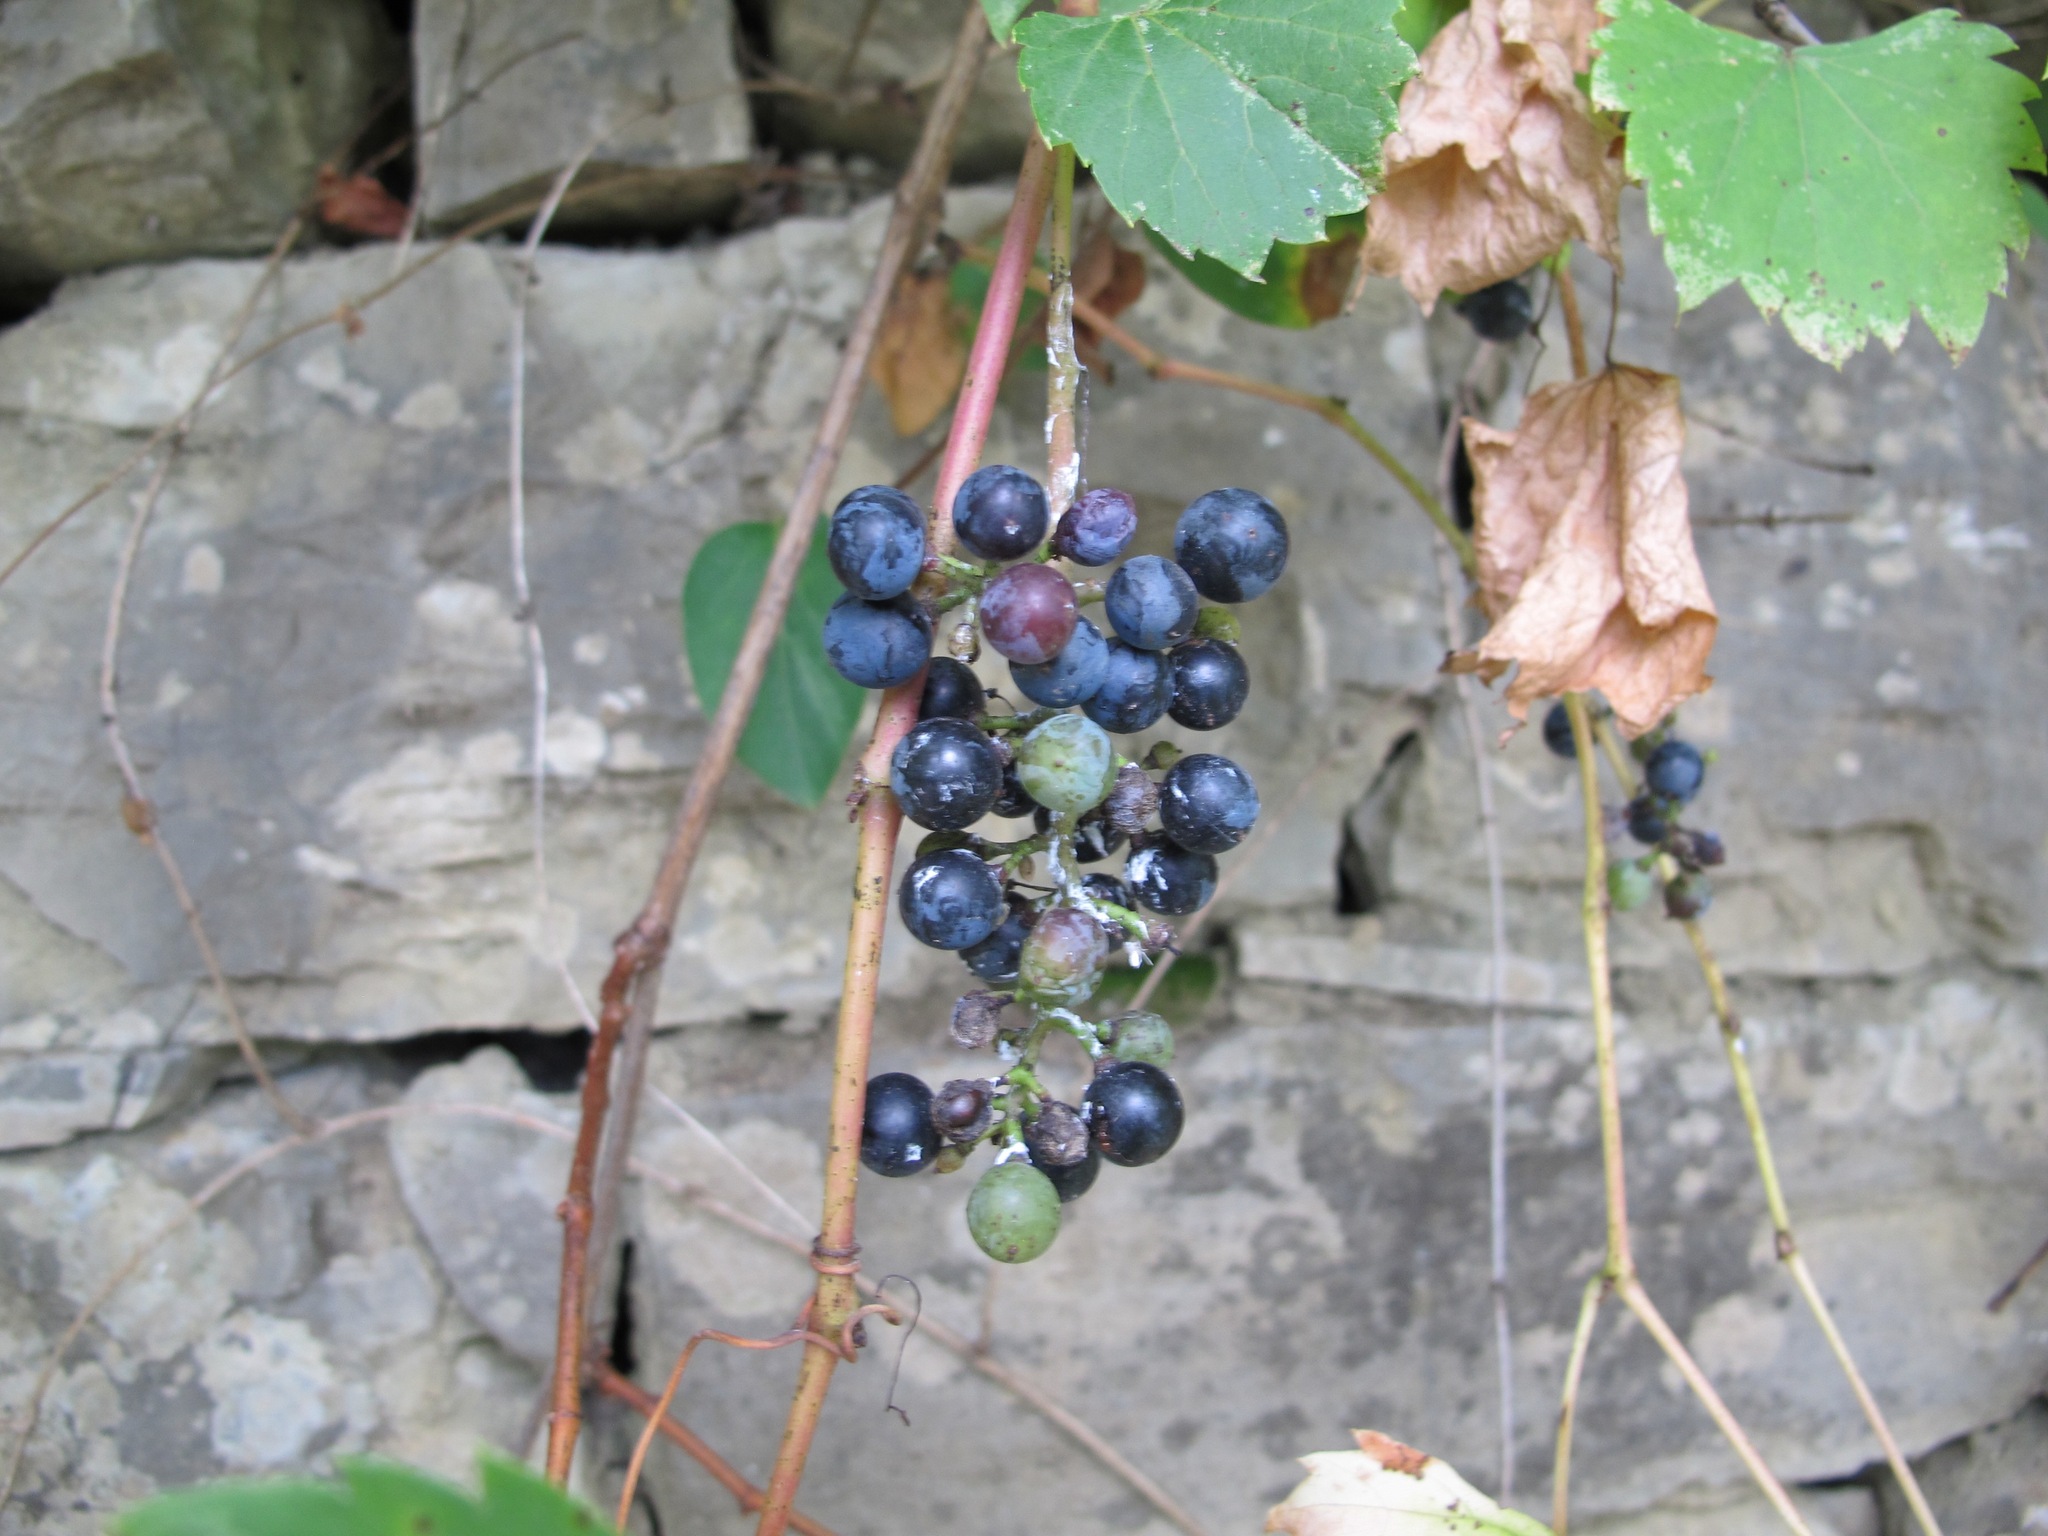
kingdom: Plantae
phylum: Tracheophyta
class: Magnoliopsida
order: Vitales
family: Vitaceae
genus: Vitis
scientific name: Vitis instabilis
